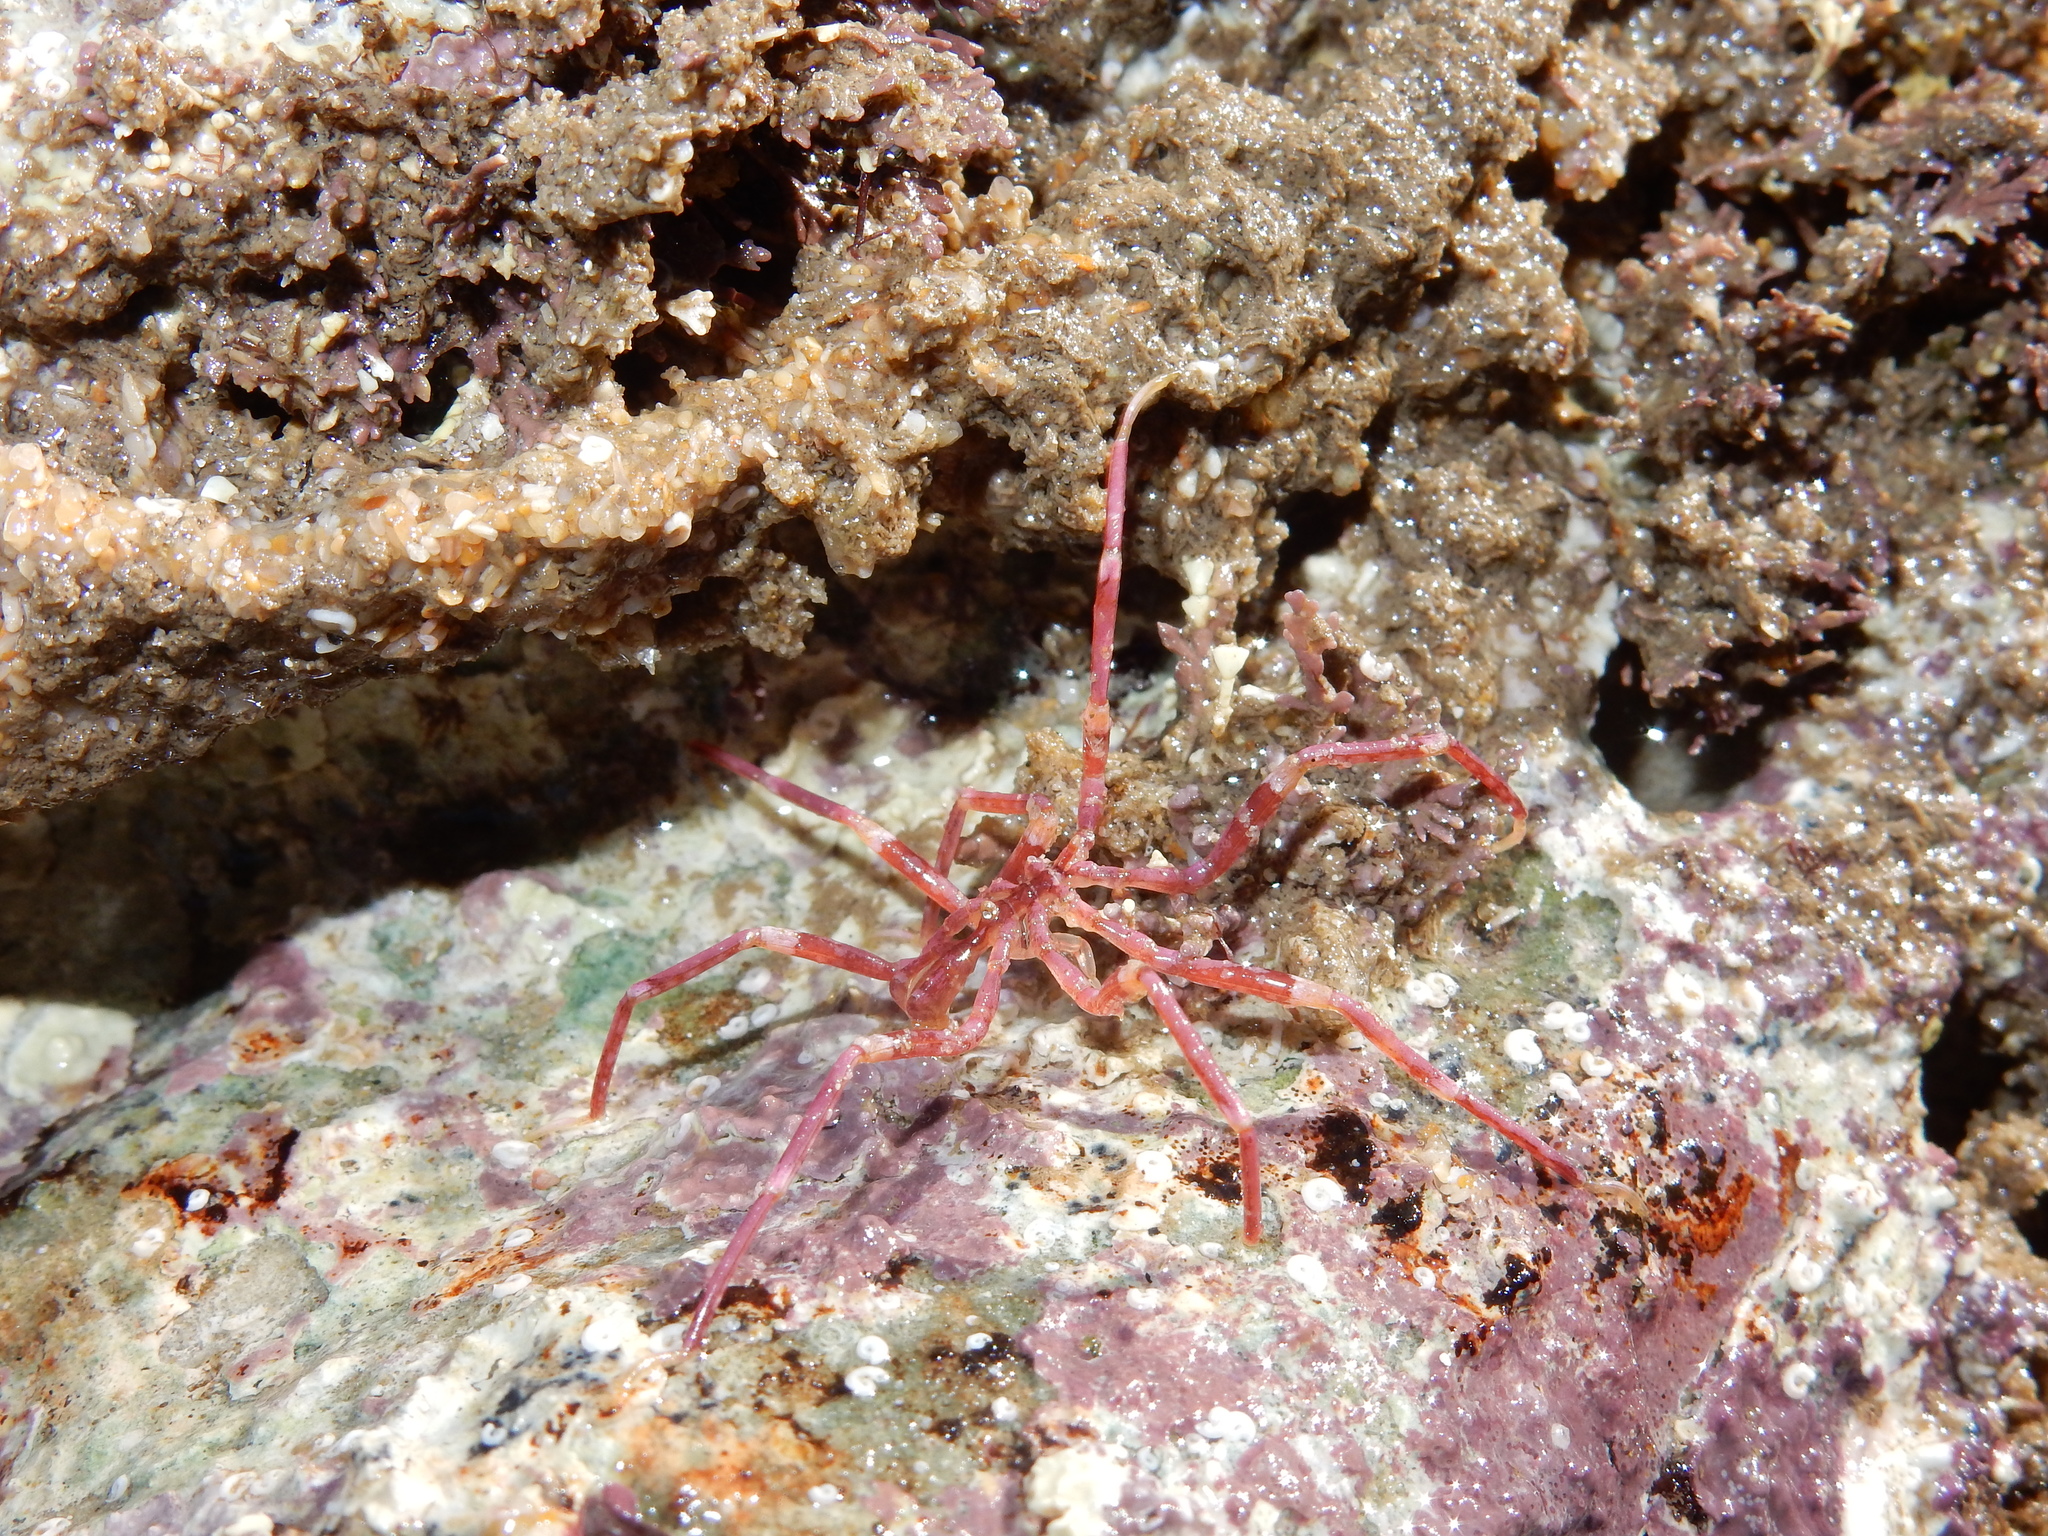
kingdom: Animalia
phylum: Arthropoda
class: Pycnogonida
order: Pantopoda
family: Nymphonidae
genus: Nymphon
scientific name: Nymphon signatum
